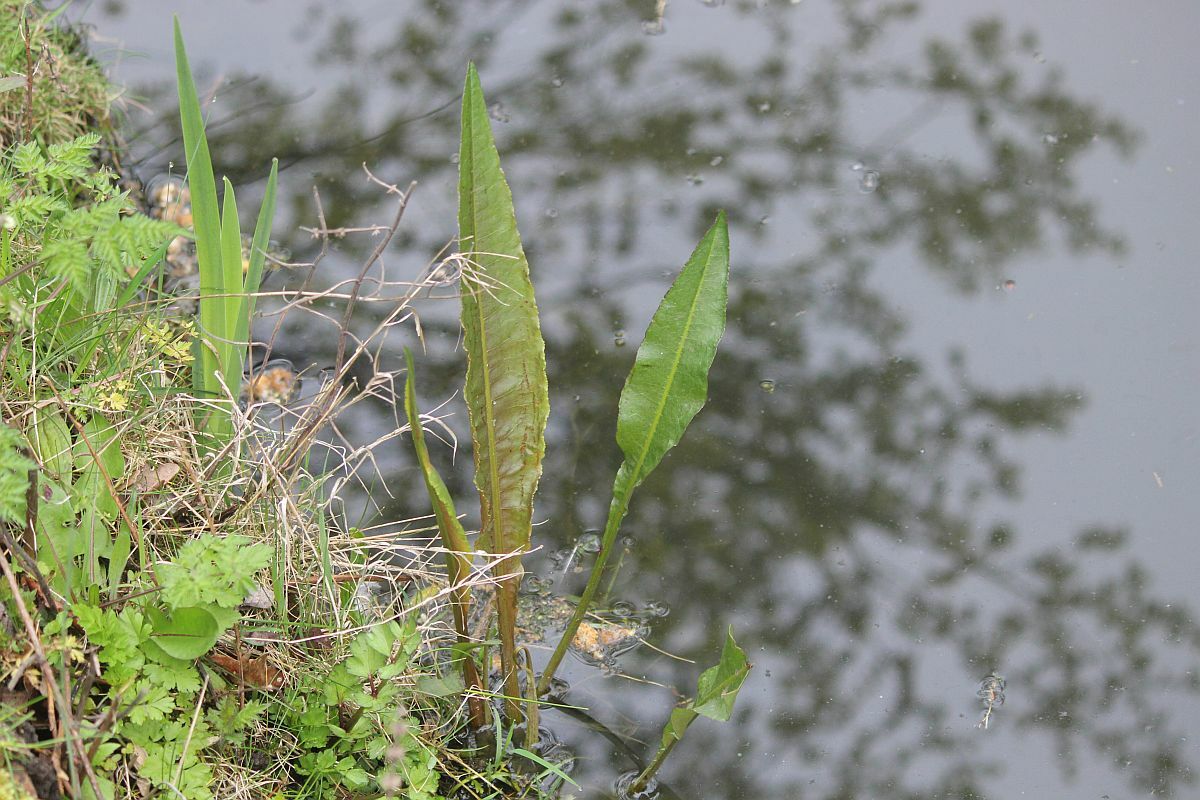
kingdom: Plantae
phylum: Tracheophyta
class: Magnoliopsida
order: Caryophyllales
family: Polygonaceae
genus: Rumex
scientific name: Rumex hydrolapathum
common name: Water dock
